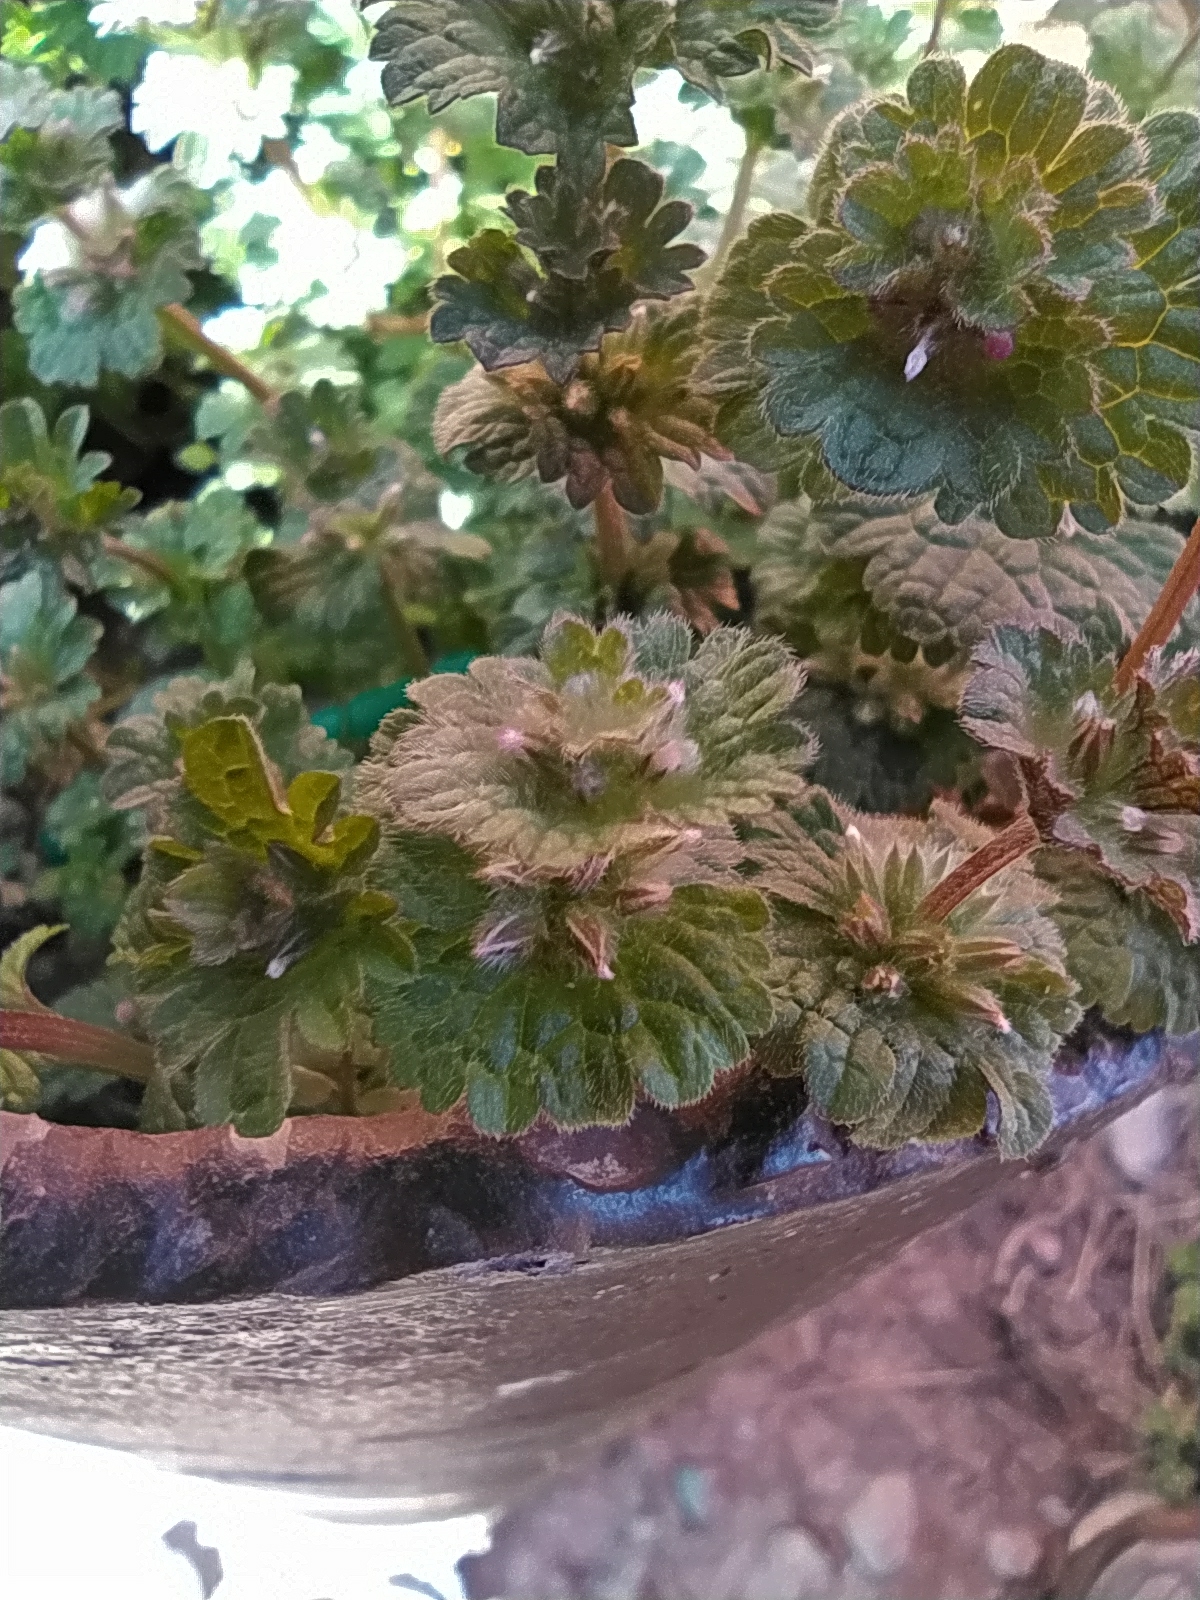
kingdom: Plantae
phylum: Tracheophyta
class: Magnoliopsida
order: Lamiales
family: Lamiaceae
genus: Lamium
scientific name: Lamium amplexicaule
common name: Henbit dead-nettle
